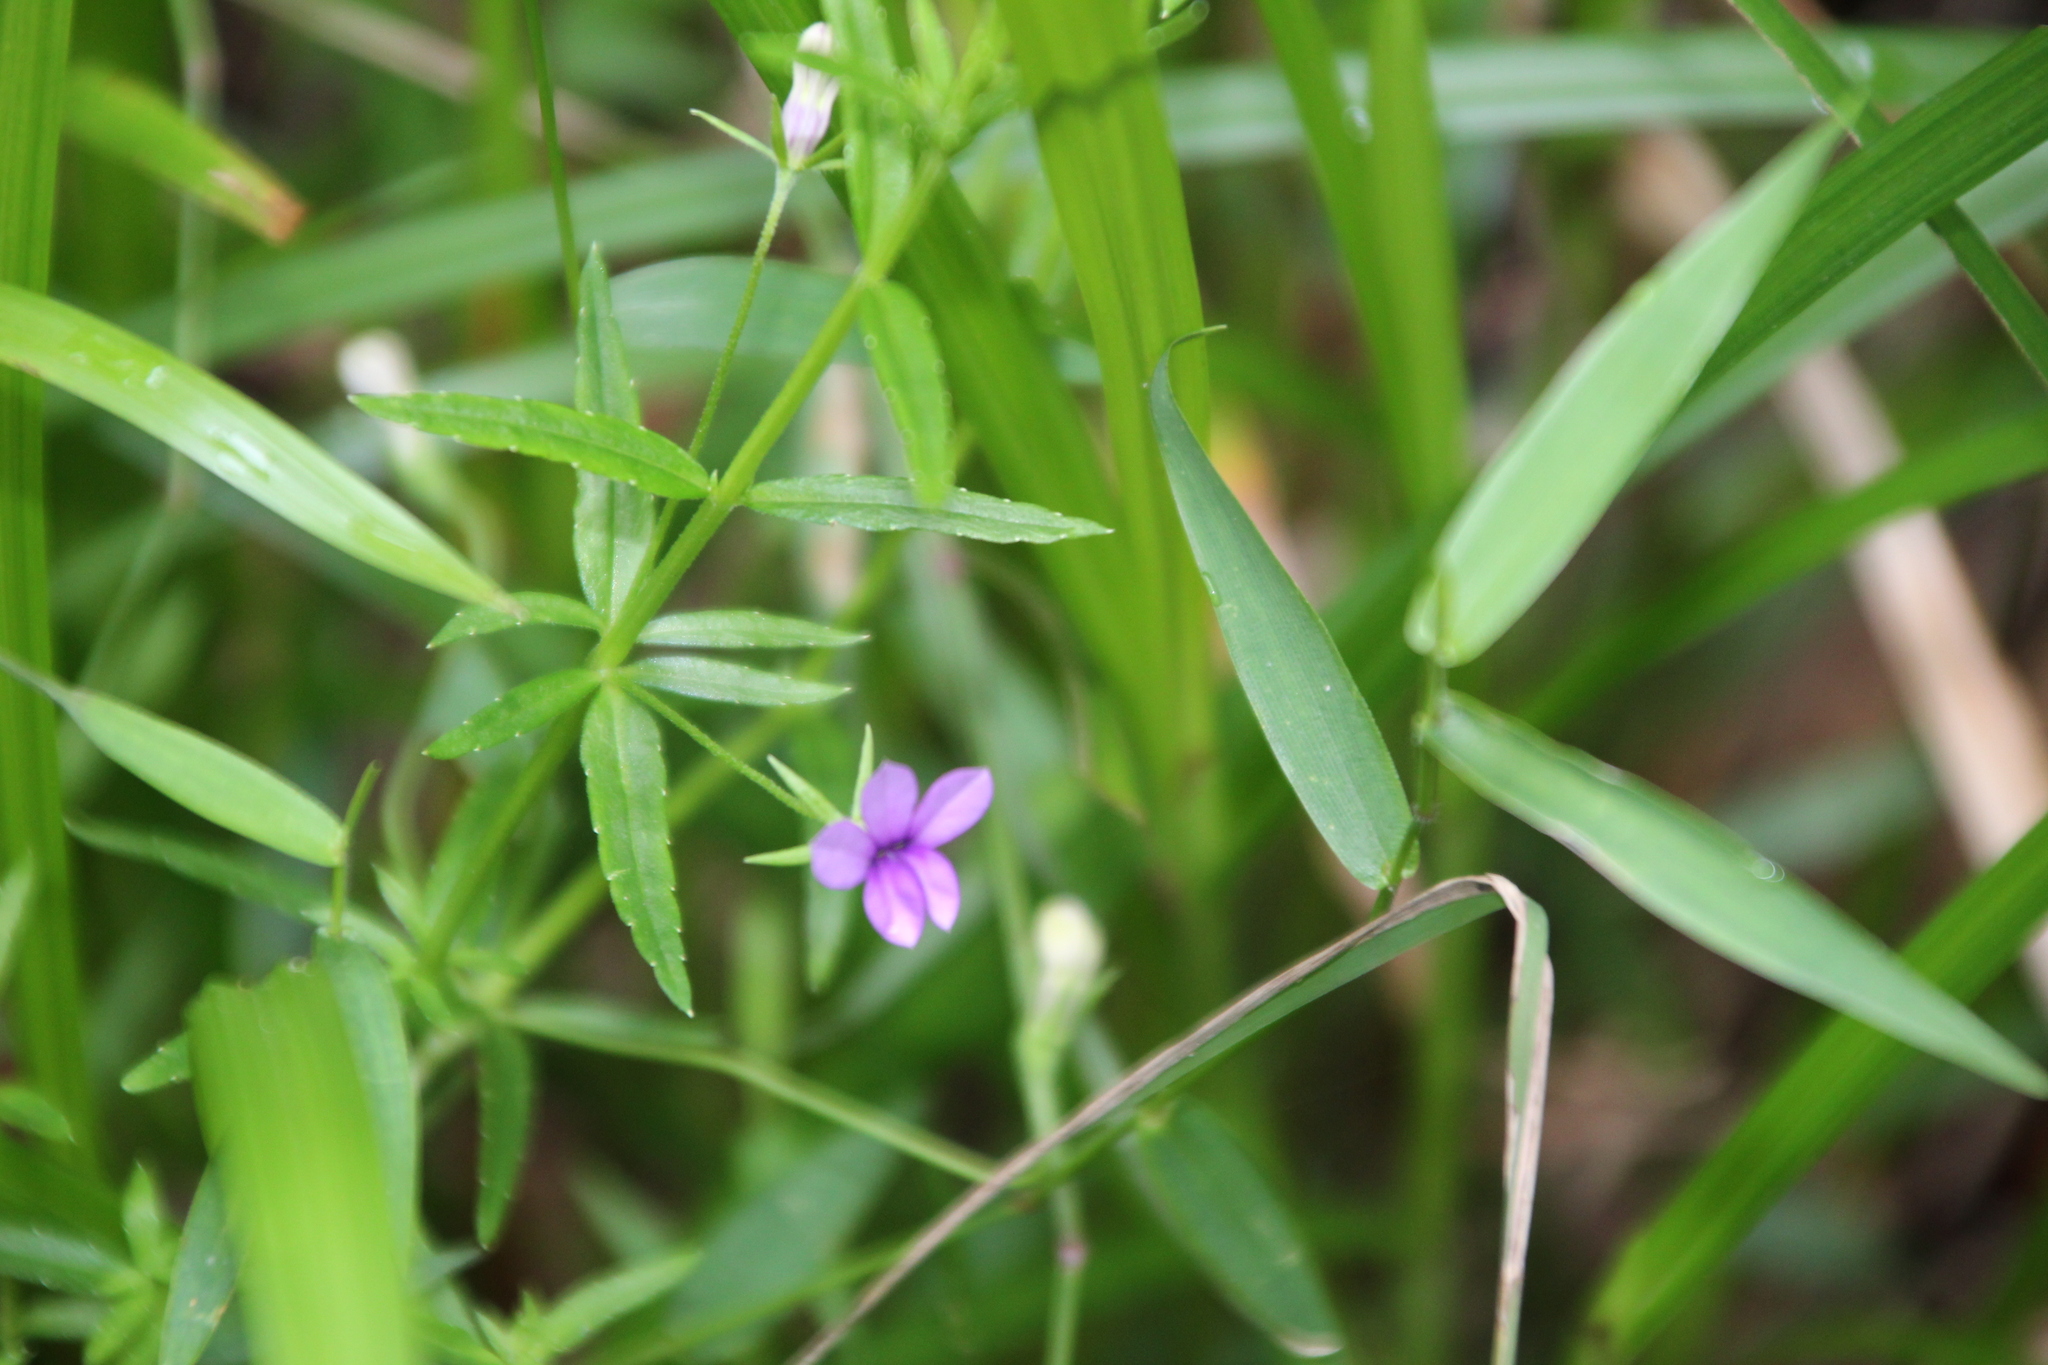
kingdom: Plantae
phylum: Tracheophyta
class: Magnoliopsida
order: Asterales
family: Campanulaceae
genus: Monopsis
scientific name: Monopsis stellarioides
